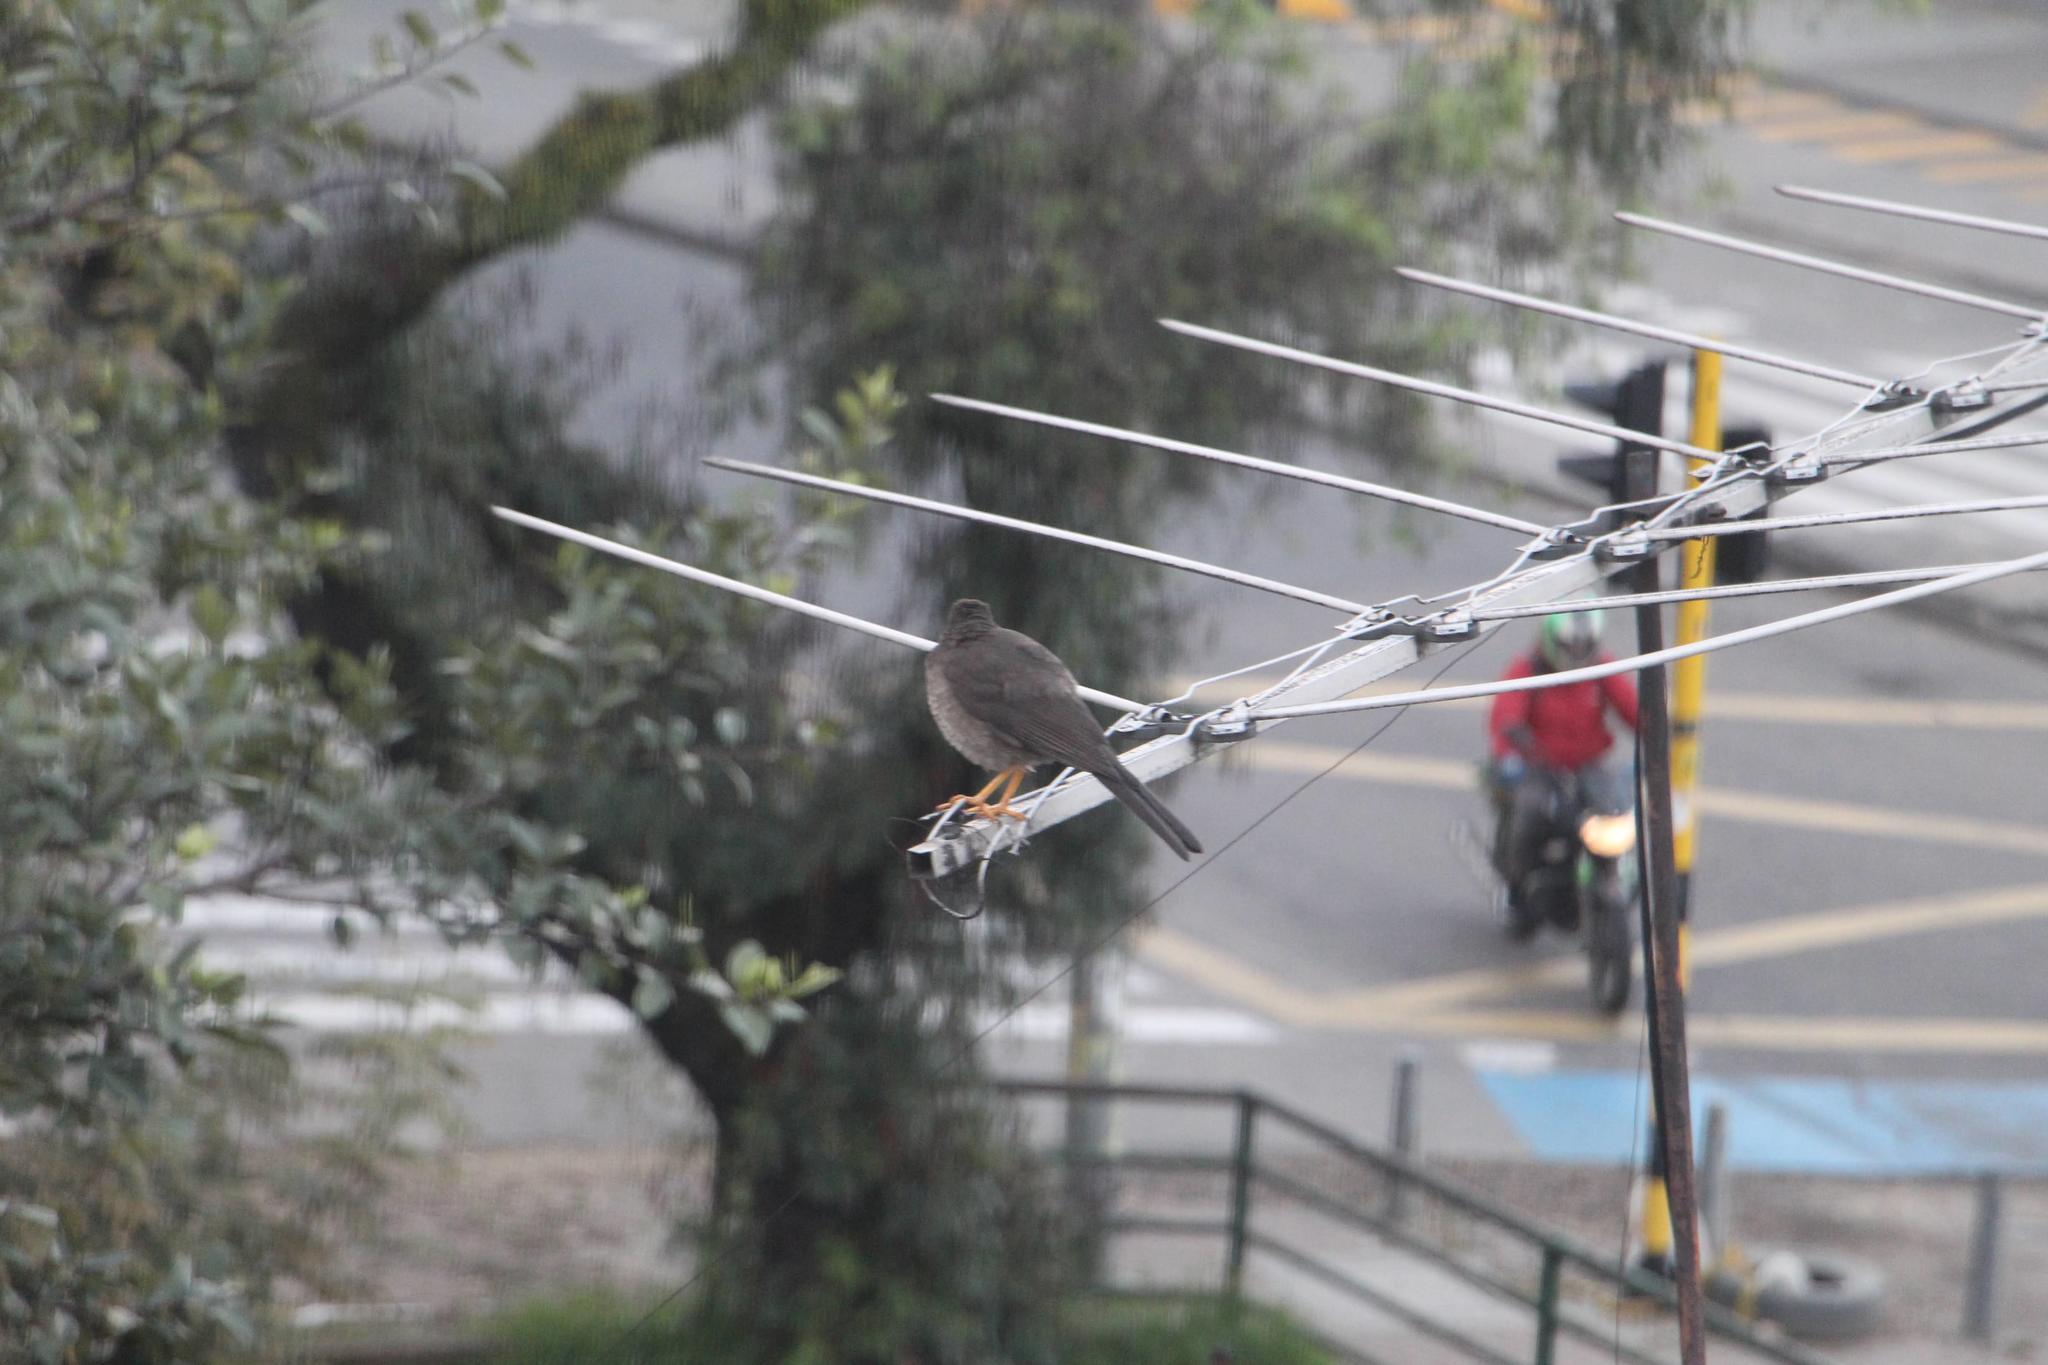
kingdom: Animalia
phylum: Chordata
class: Aves
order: Passeriformes
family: Turdidae
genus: Turdus
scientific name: Turdus fuscater
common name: Great thrush
